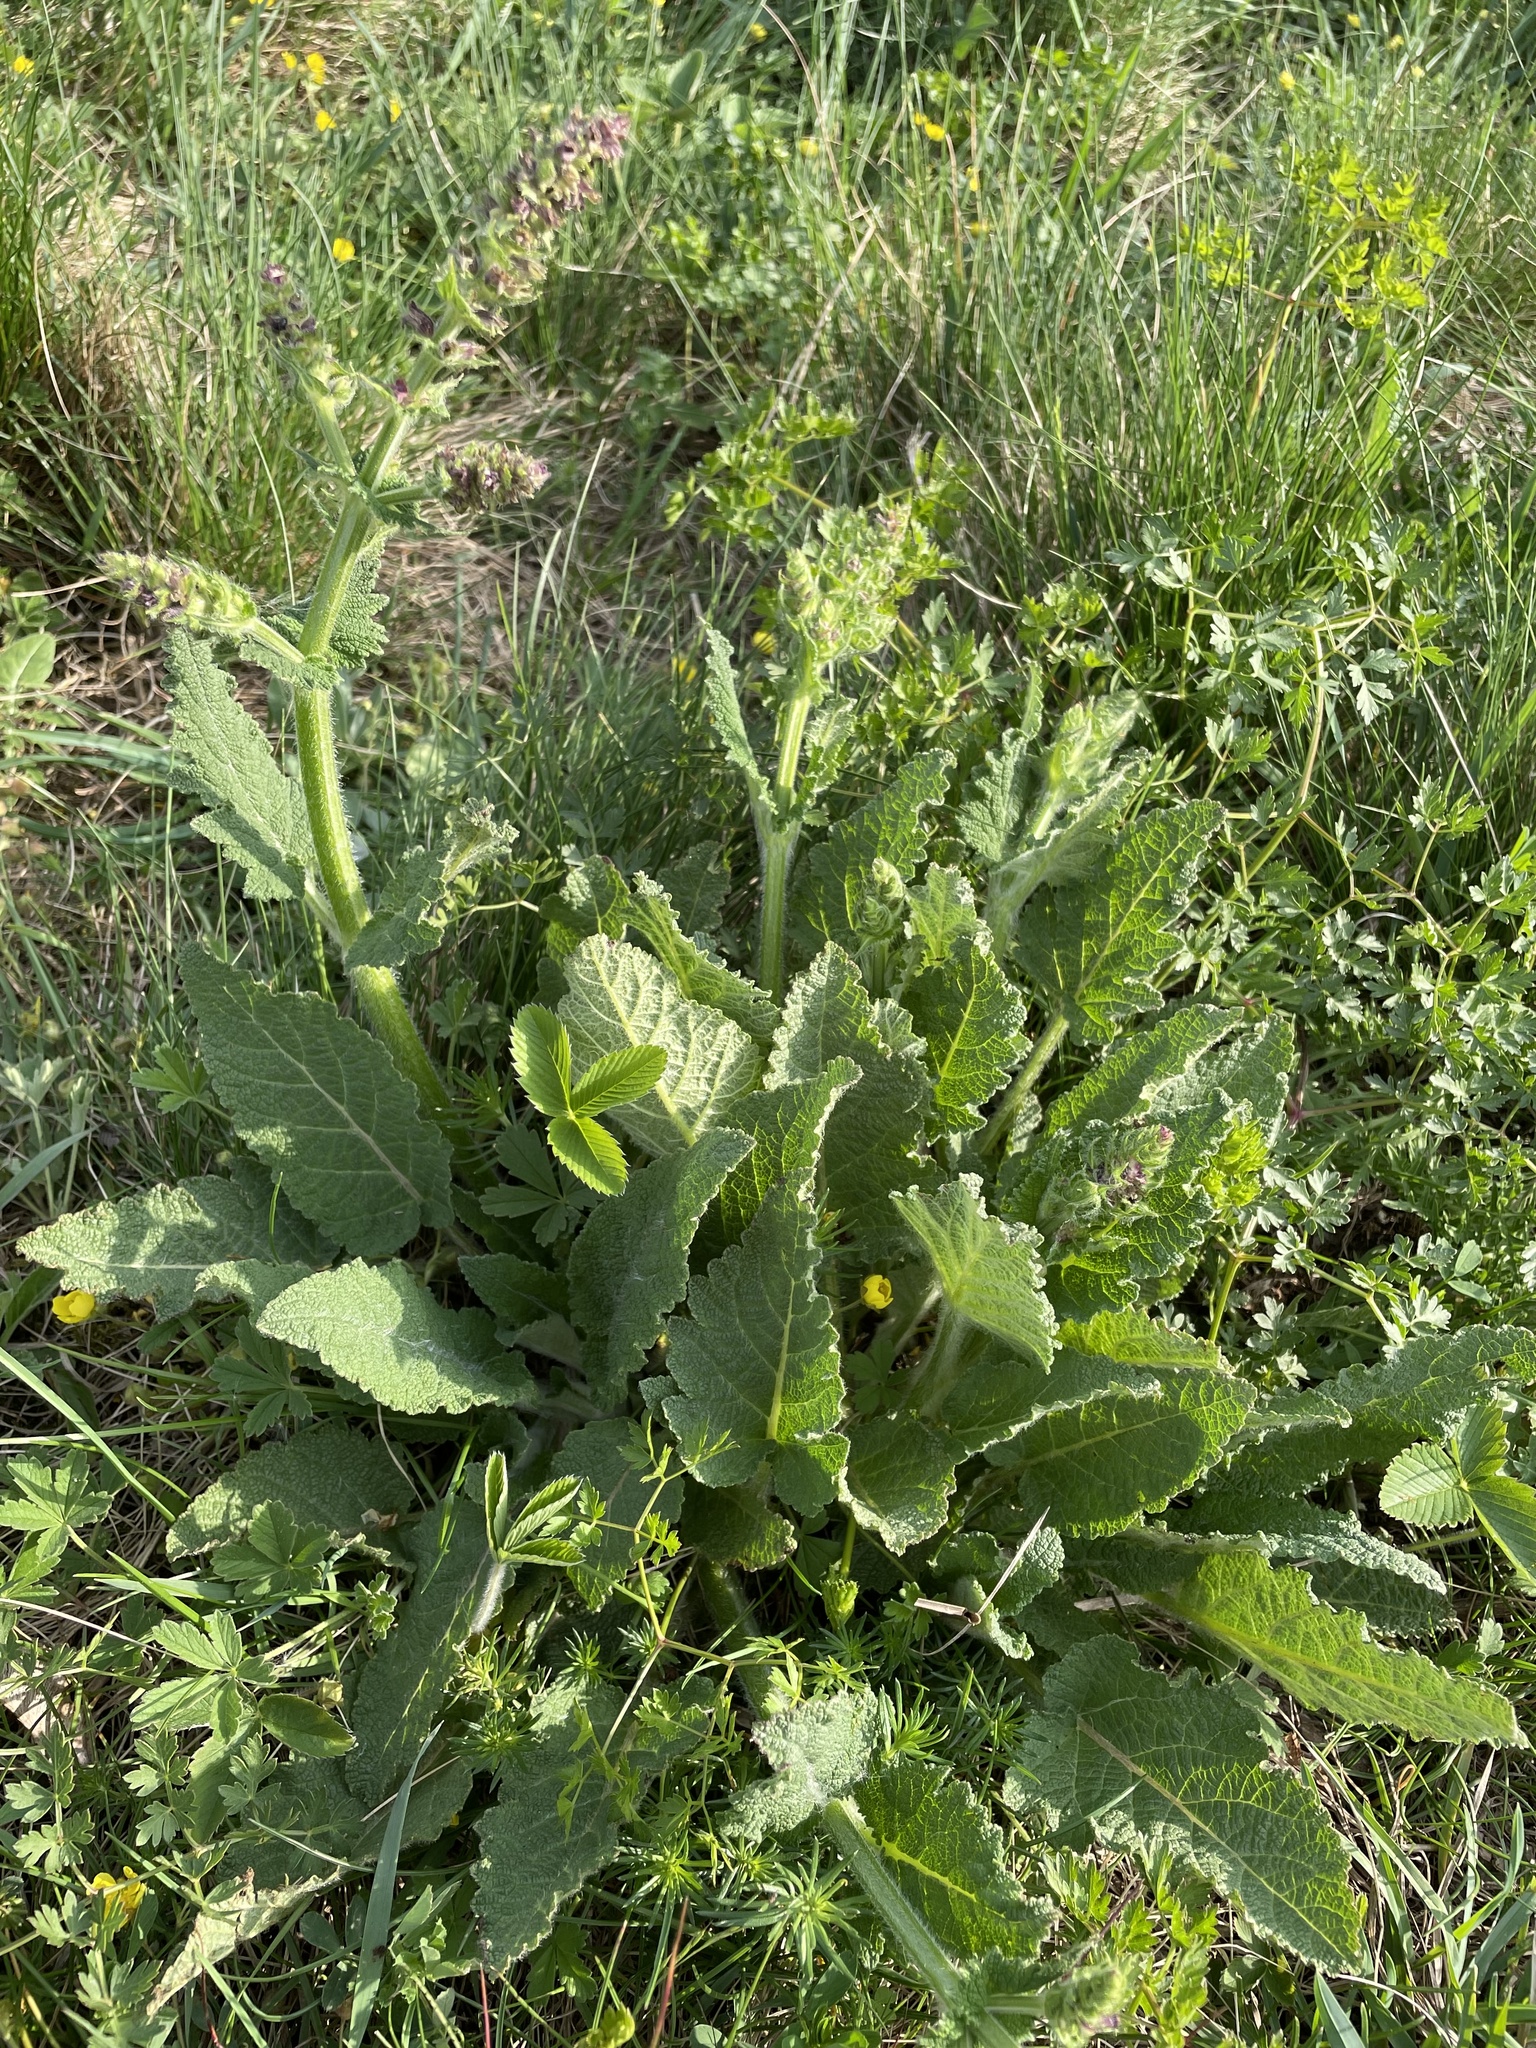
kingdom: Plantae
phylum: Tracheophyta
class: Magnoliopsida
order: Lamiales
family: Lamiaceae
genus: Salvia
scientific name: Salvia pratensis
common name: Meadow sage
